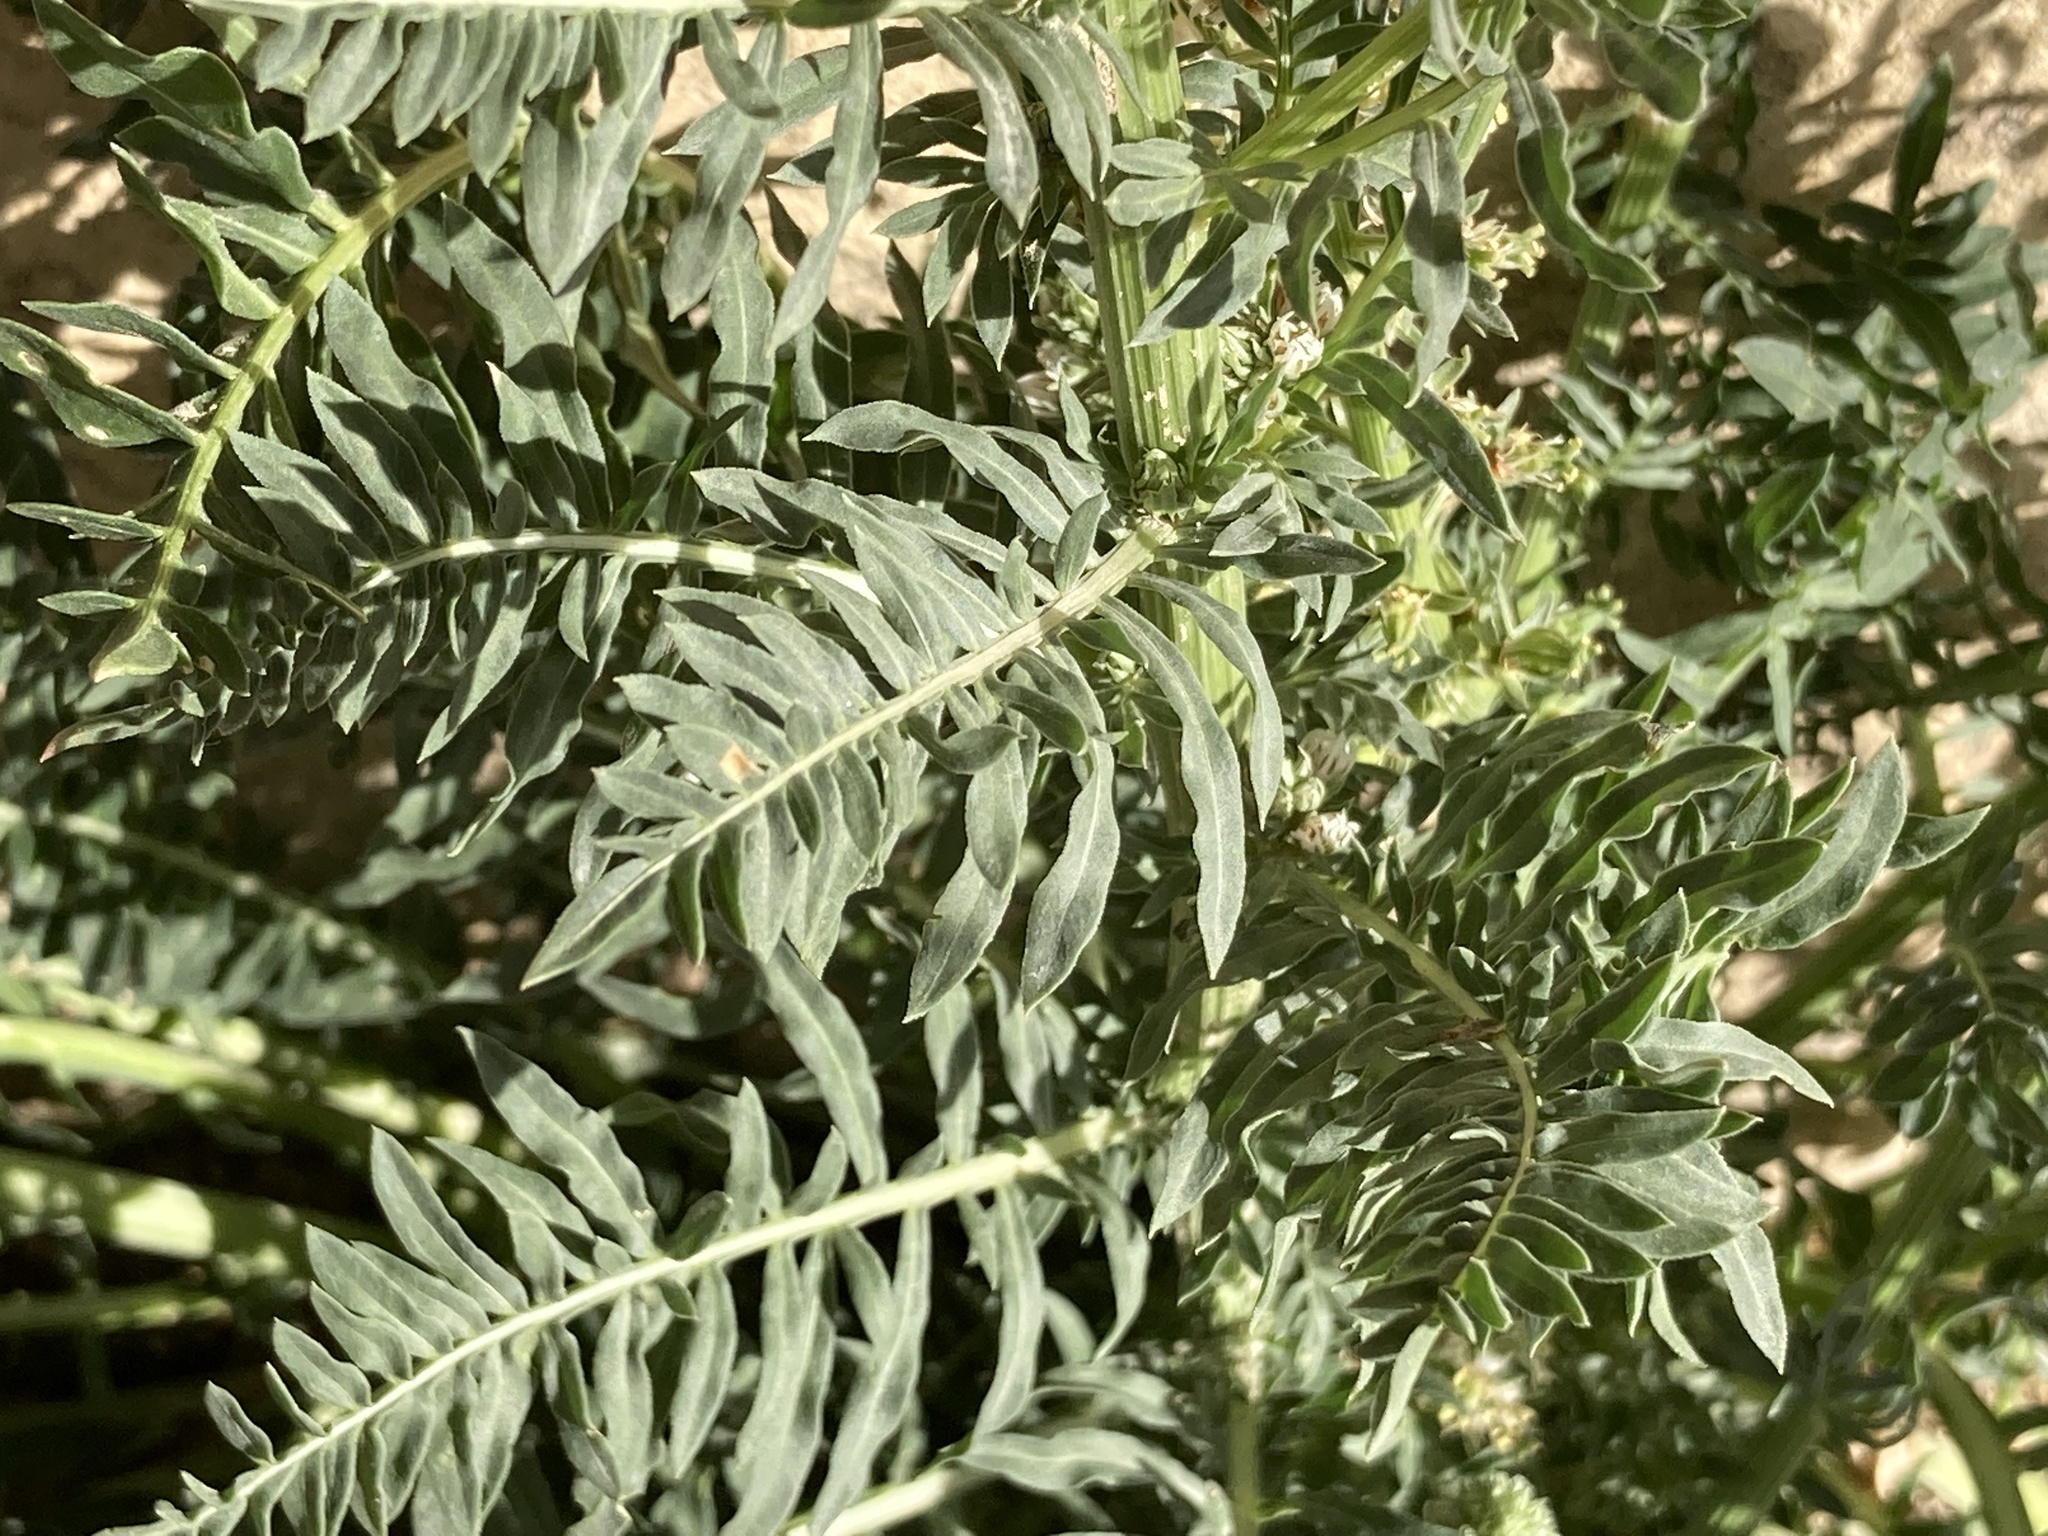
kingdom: Plantae
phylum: Tracheophyta
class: Magnoliopsida
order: Brassicales
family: Resedaceae
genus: Reseda
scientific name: Reseda alba
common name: White mignonette
